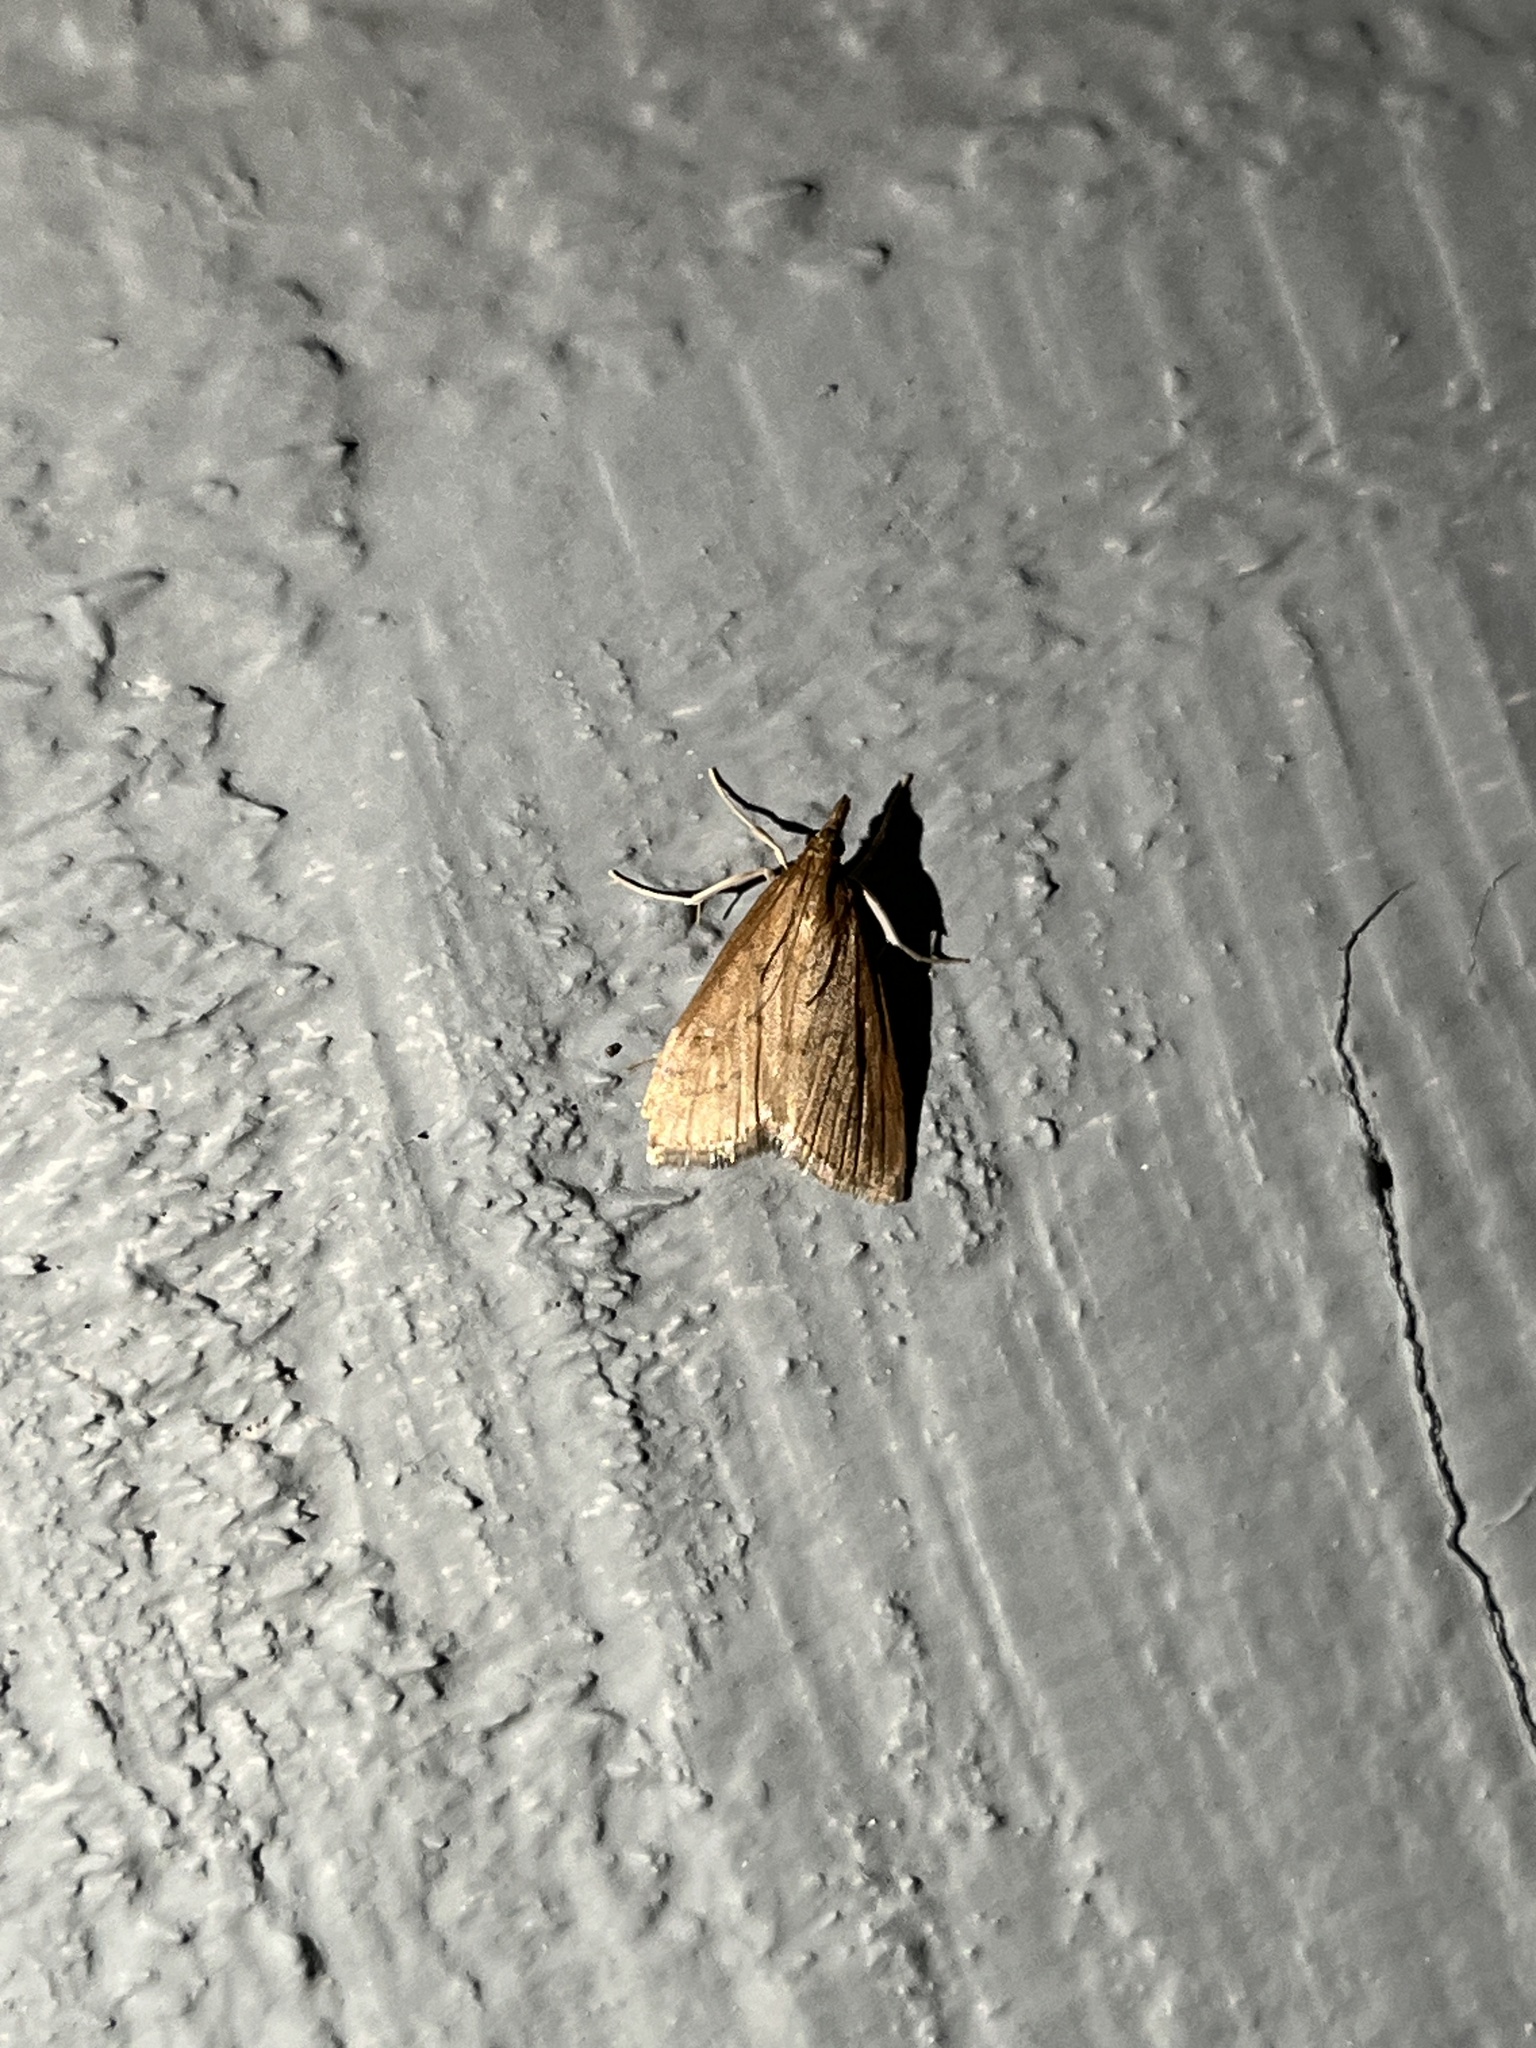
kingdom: Animalia
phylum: Arthropoda
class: Insecta
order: Lepidoptera
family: Crambidae
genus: Udea
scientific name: Udea rubigalis
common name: Celery leaftier moth
